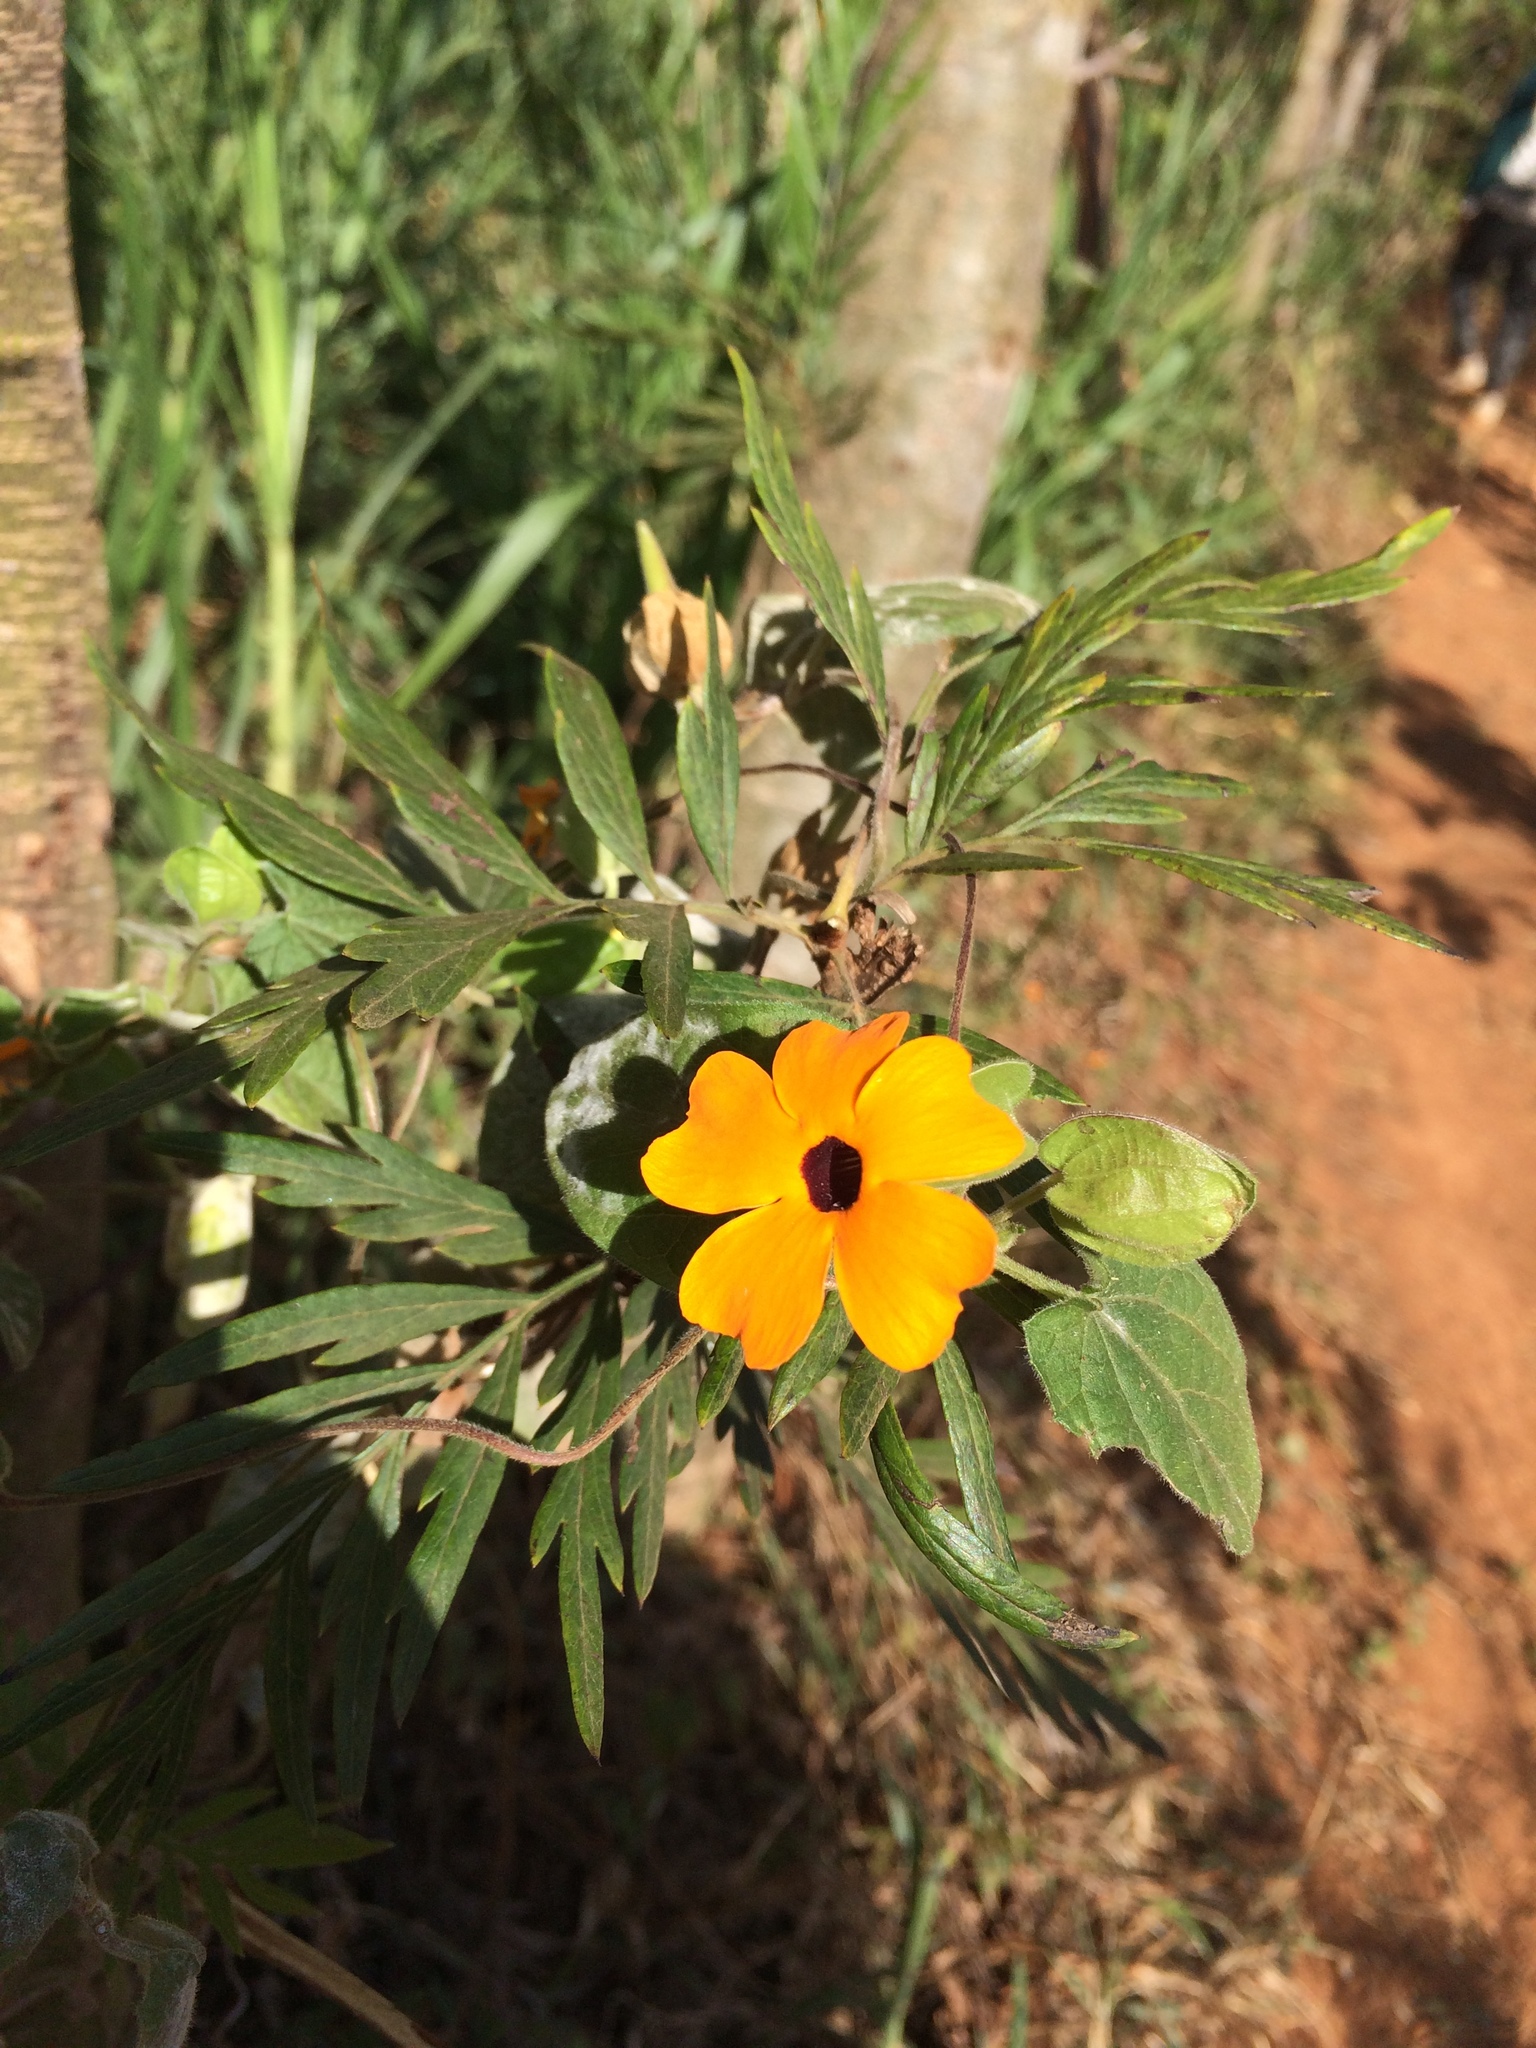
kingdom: Plantae
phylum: Tracheophyta
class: Magnoliopsida
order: Lamiales
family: Acanthaceae
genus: Thunbergia
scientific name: Thunbergia alata
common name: Blackeyed susan vine
